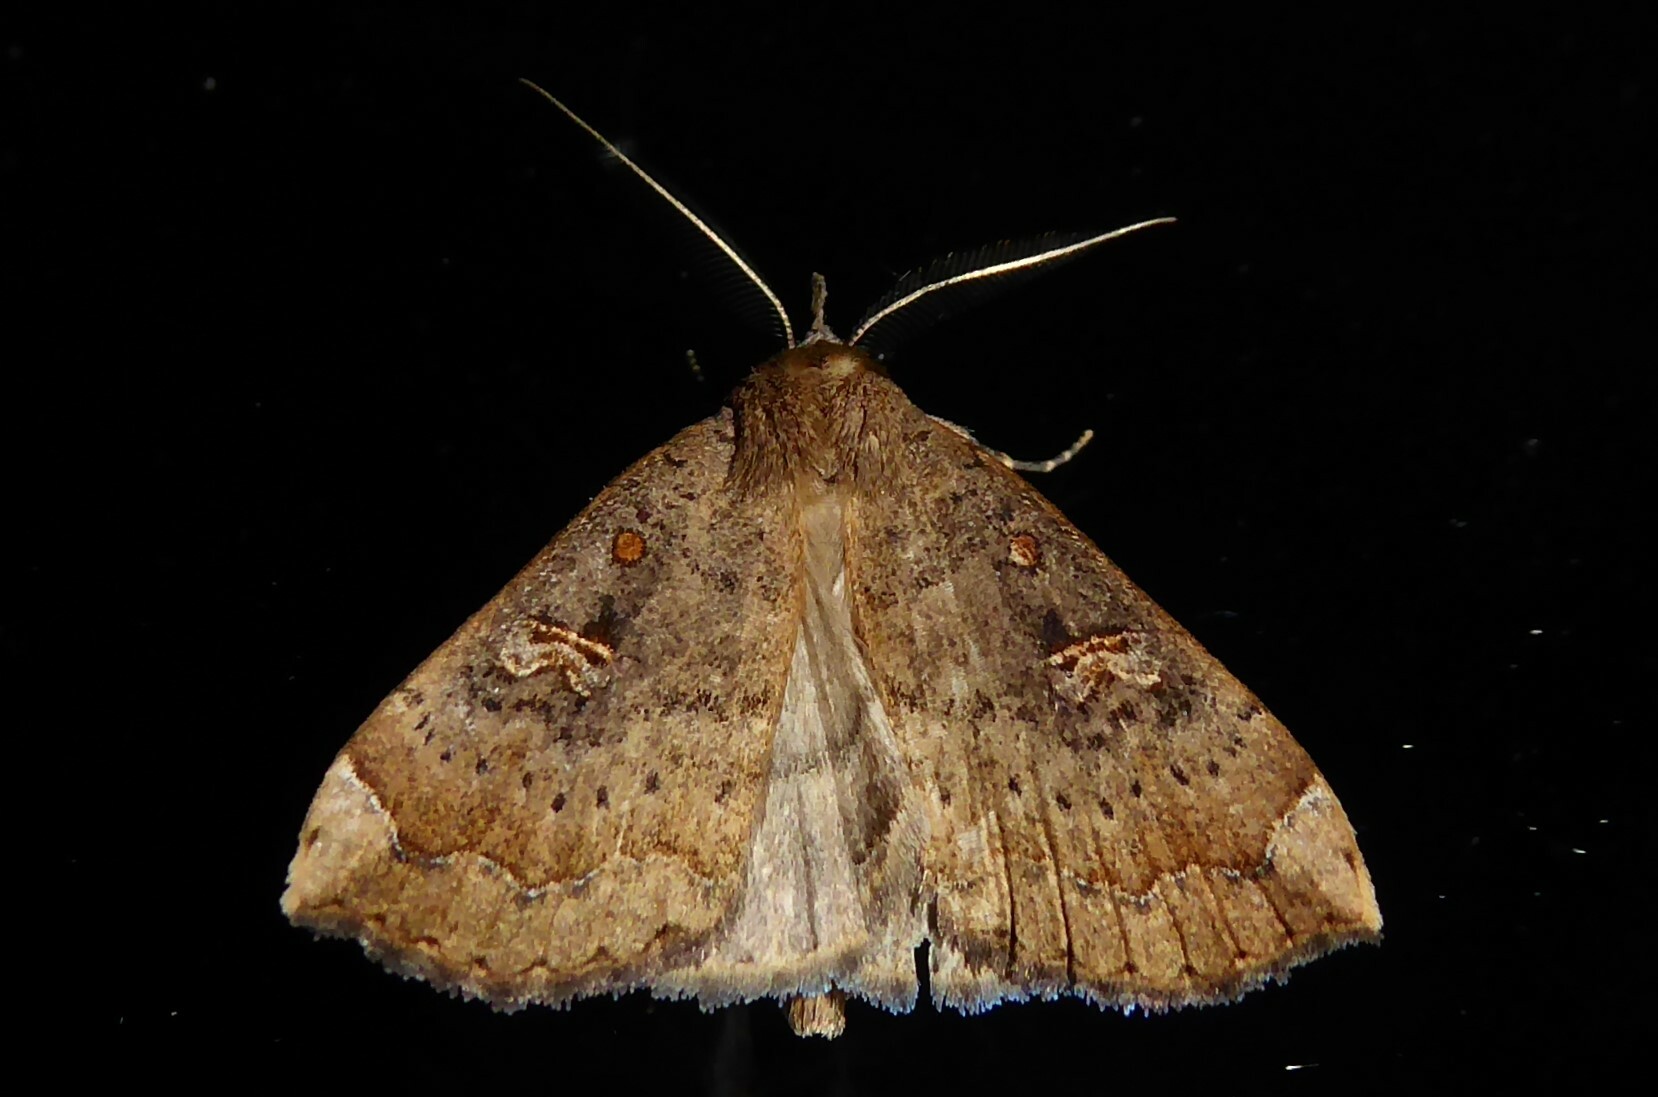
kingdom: Animalia
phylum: Arthropoda
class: Insecta
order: Lepidoptera
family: Erebidae
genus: Rhapsa
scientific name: Rhapsa scotosialis
